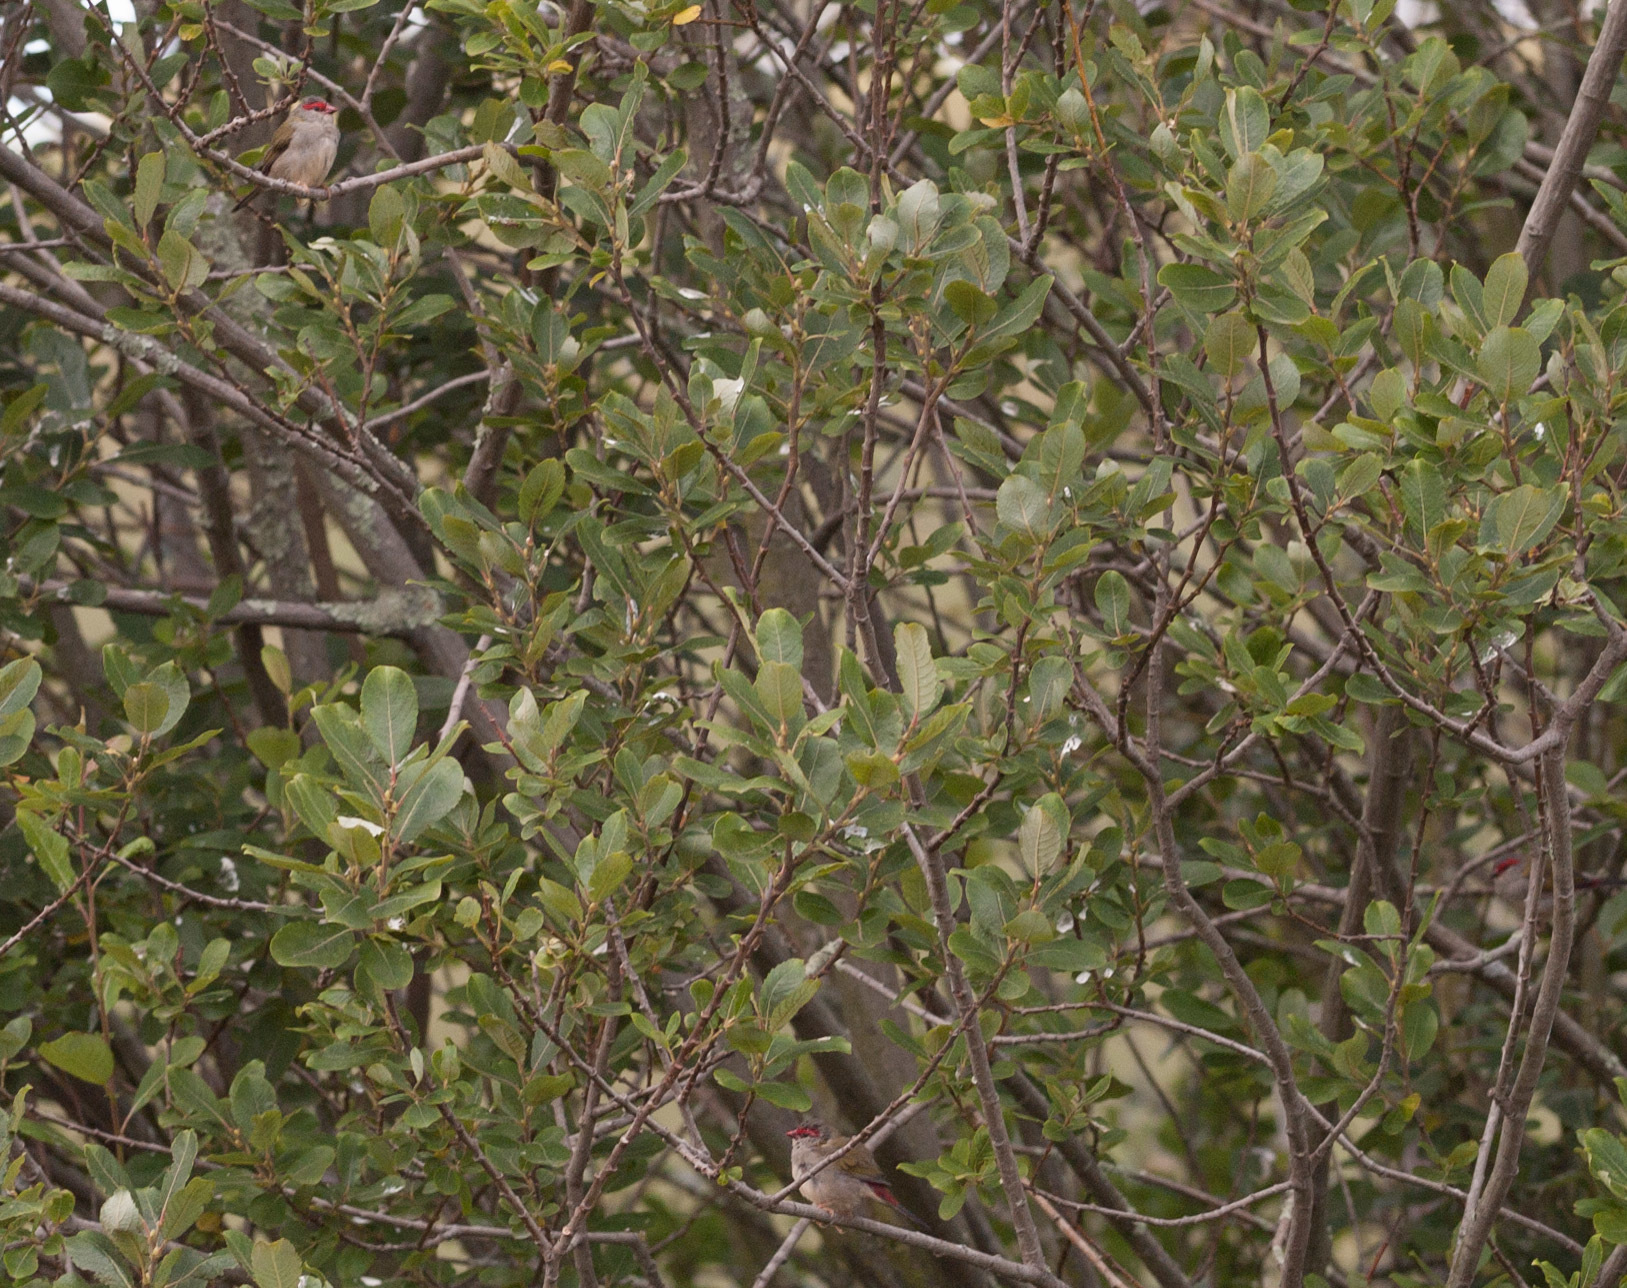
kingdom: Animalia
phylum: Chordata
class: Aves
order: Passeriformes
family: Estrildidae
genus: Neochmia
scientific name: Neochmia temporalis
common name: Red-browed finch
